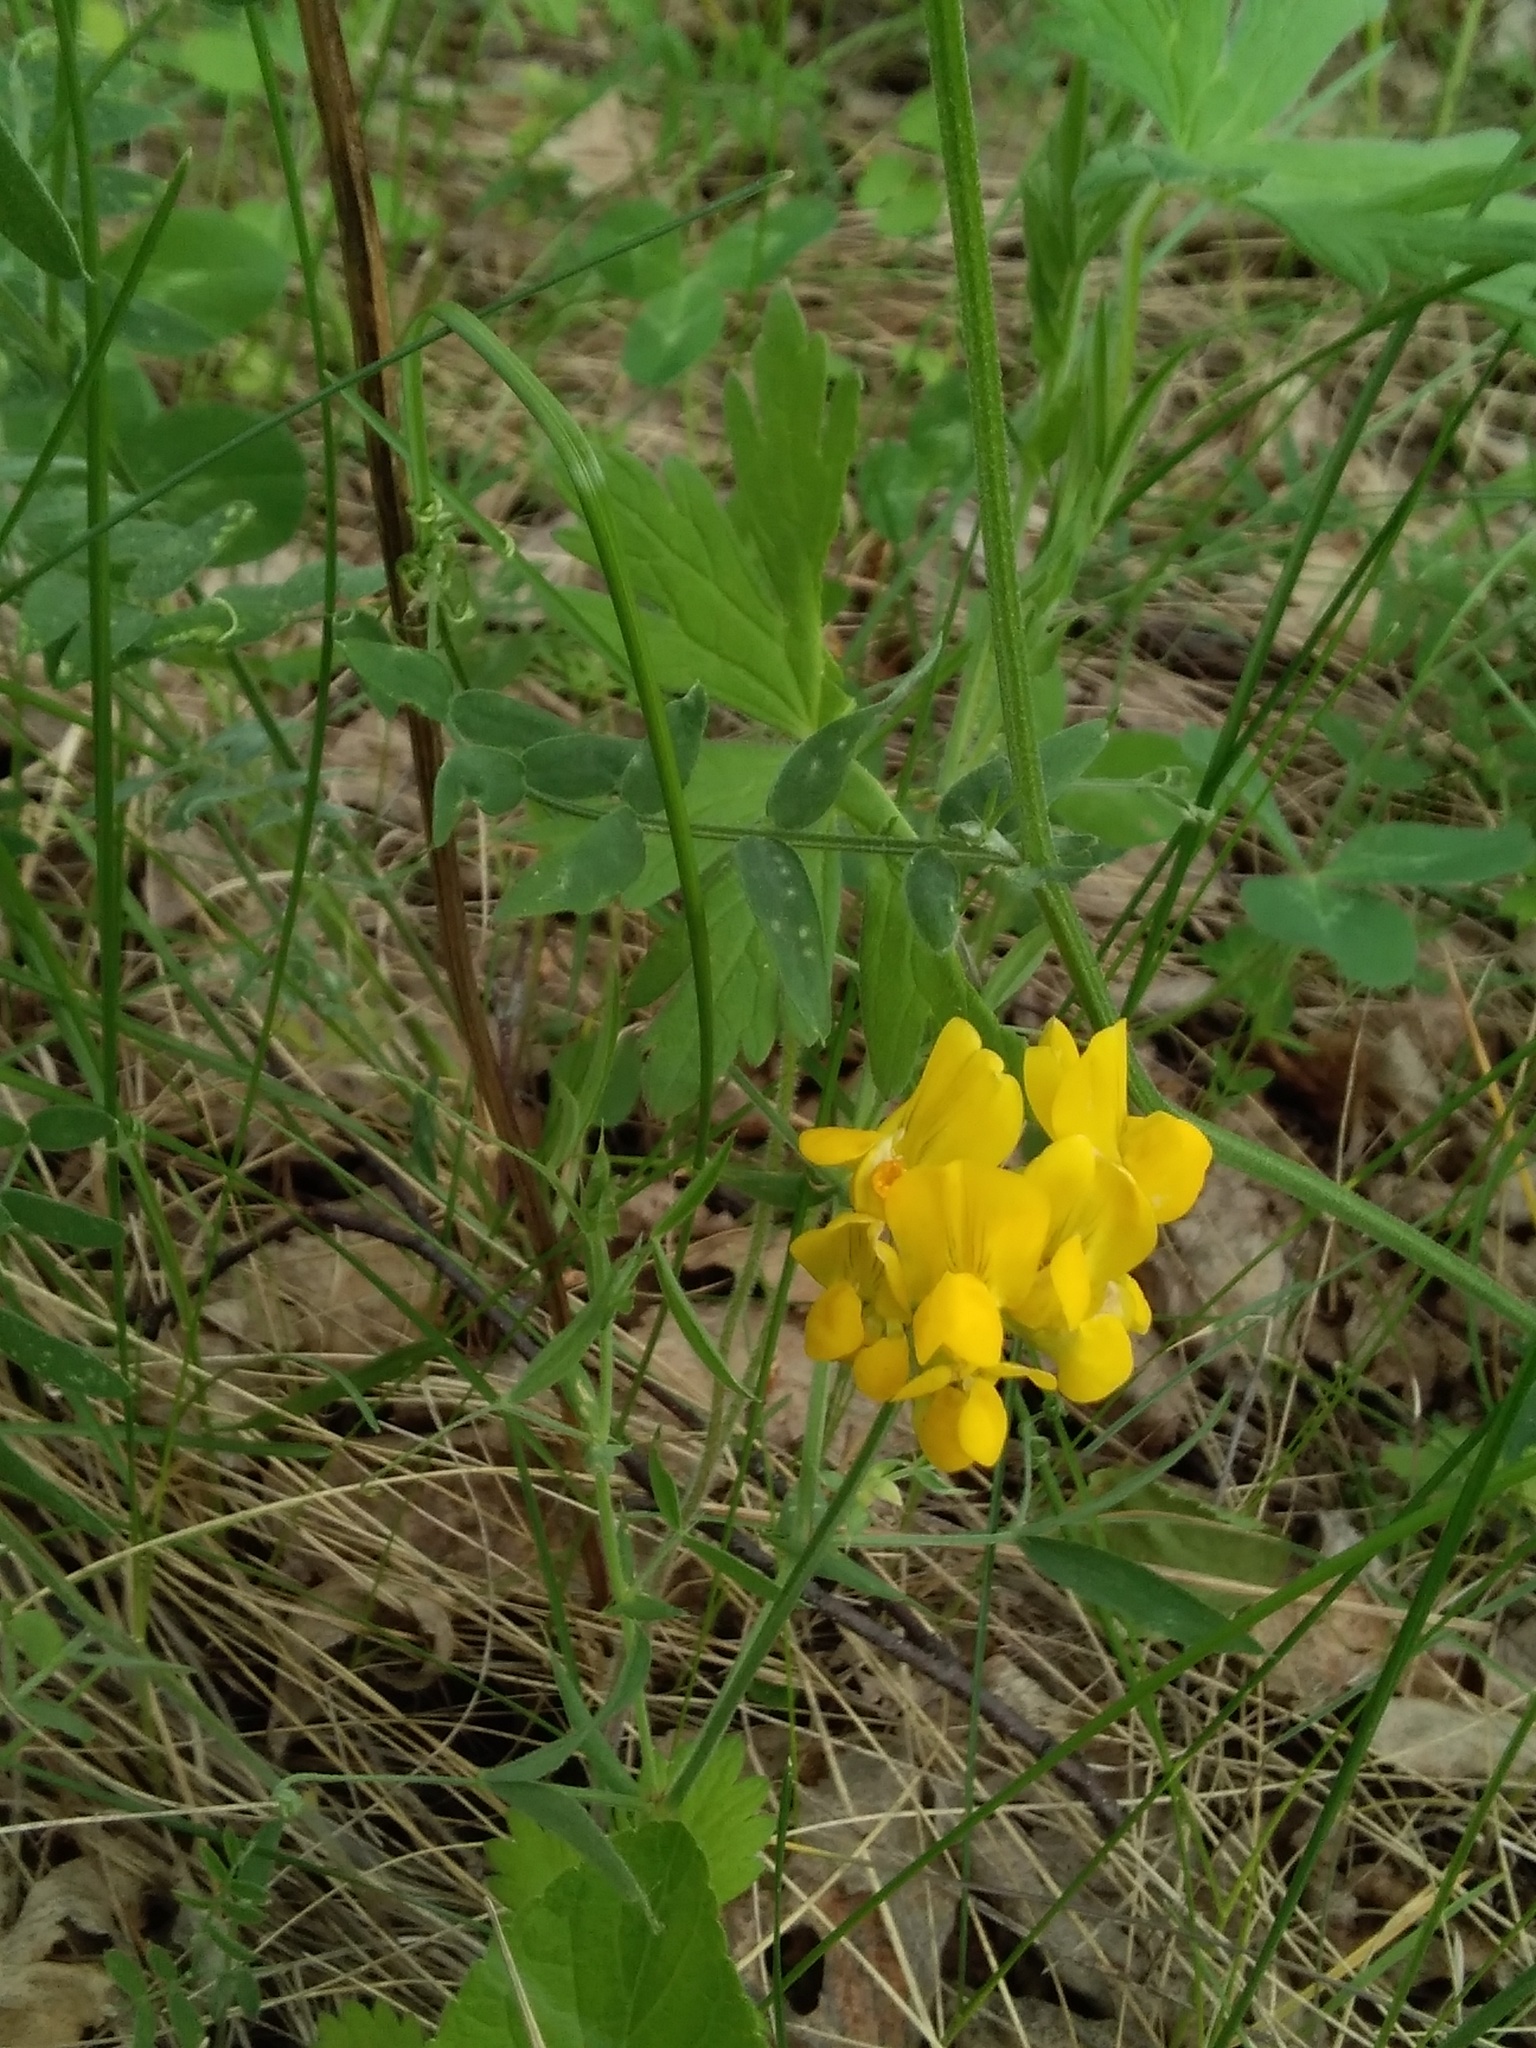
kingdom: Plantae
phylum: Tracheophyta
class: Magnoliopsida
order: Fabales
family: Fabaceae
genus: Lathyrus
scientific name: Lathyrus pratensis
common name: Meadow vetchling
